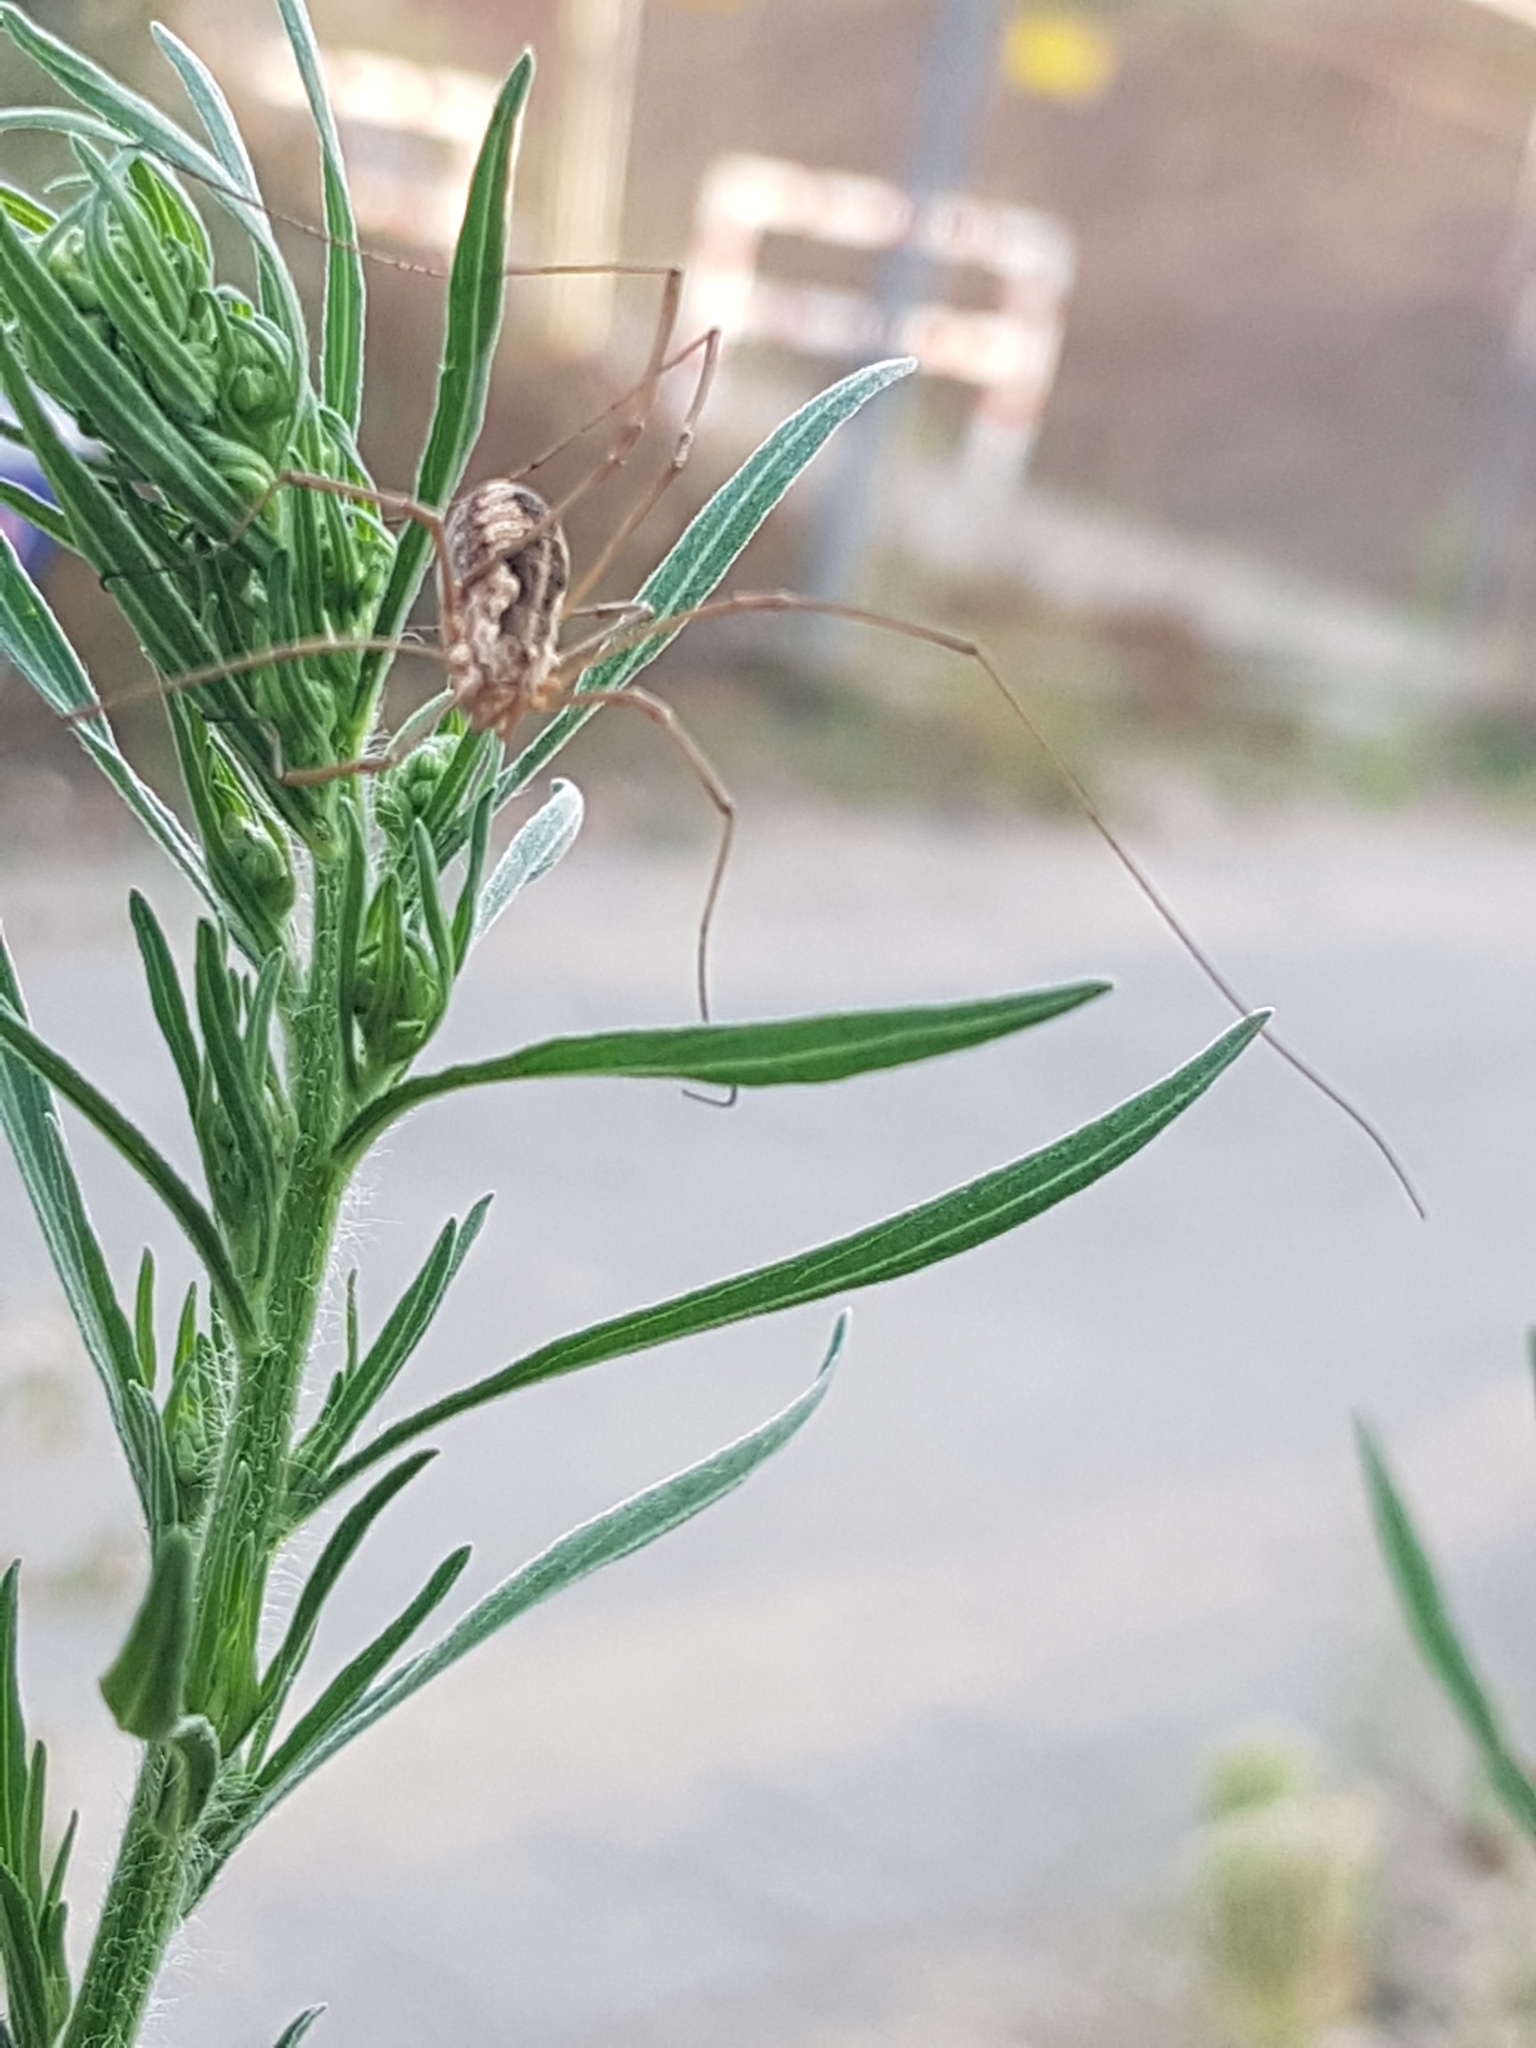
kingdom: Animalia
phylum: Arthropoda
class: Arachnida
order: Opiliones
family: Phalangiidae
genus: Phalangium
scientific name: Phalangium opilio
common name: Daddy longleg
